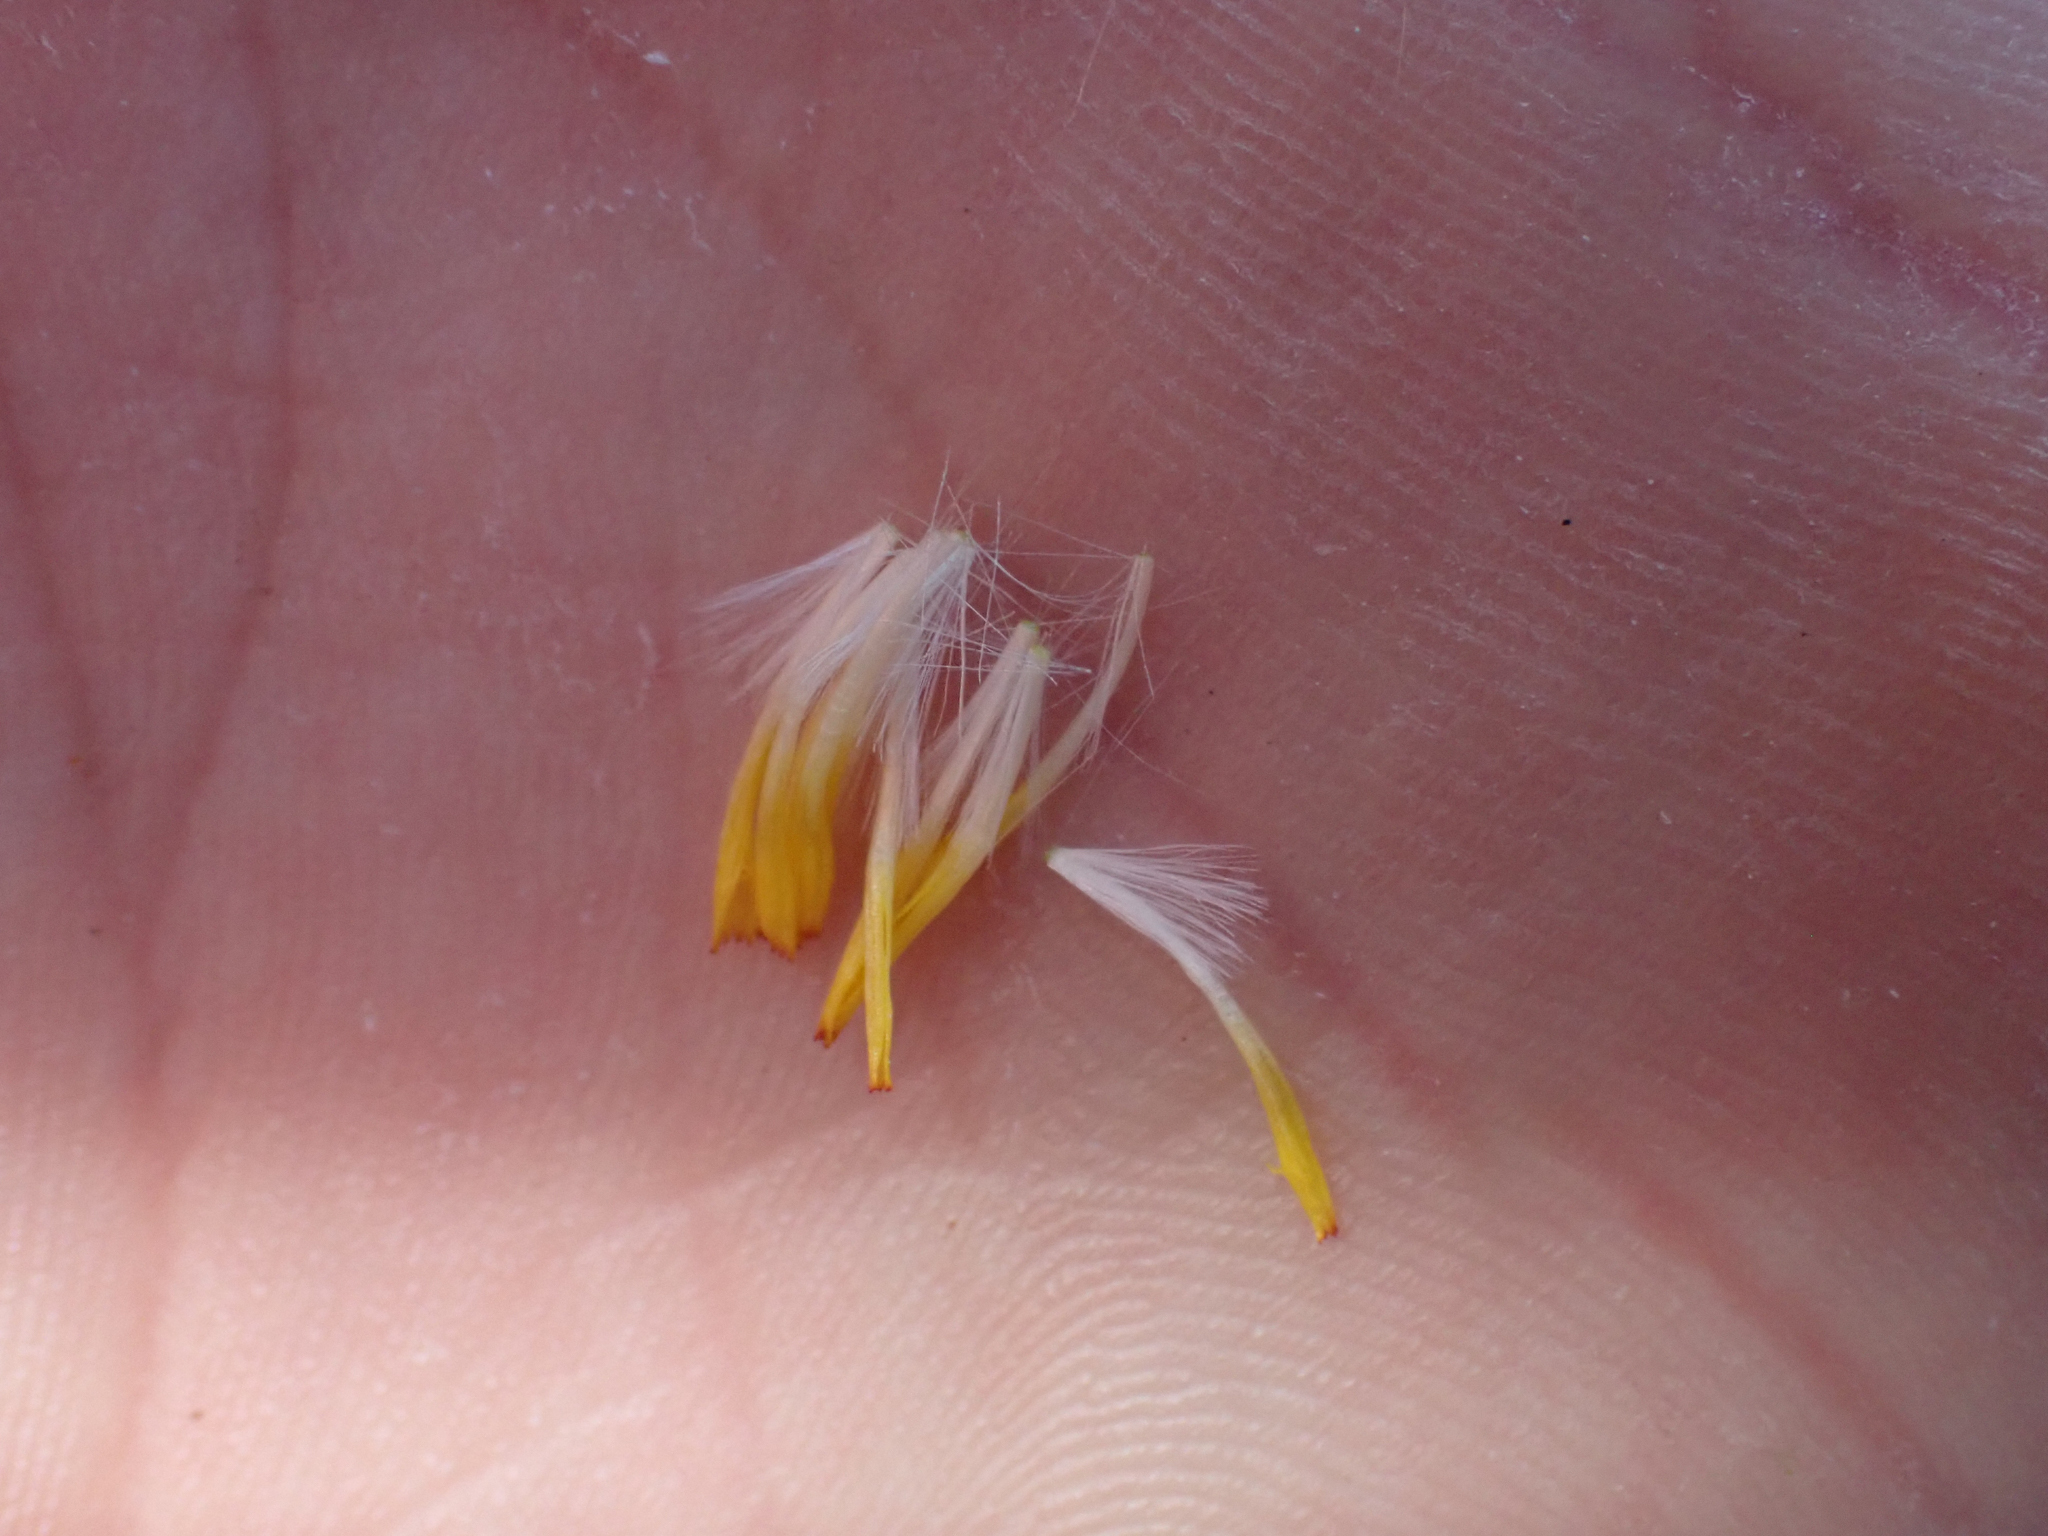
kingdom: Plantae
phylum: Tracheophyta
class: Magnoliopsida
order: Asterales
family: Asteraceae
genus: Askellia
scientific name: Askellia pygmaea
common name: Dwarf alpine hawksbeard
